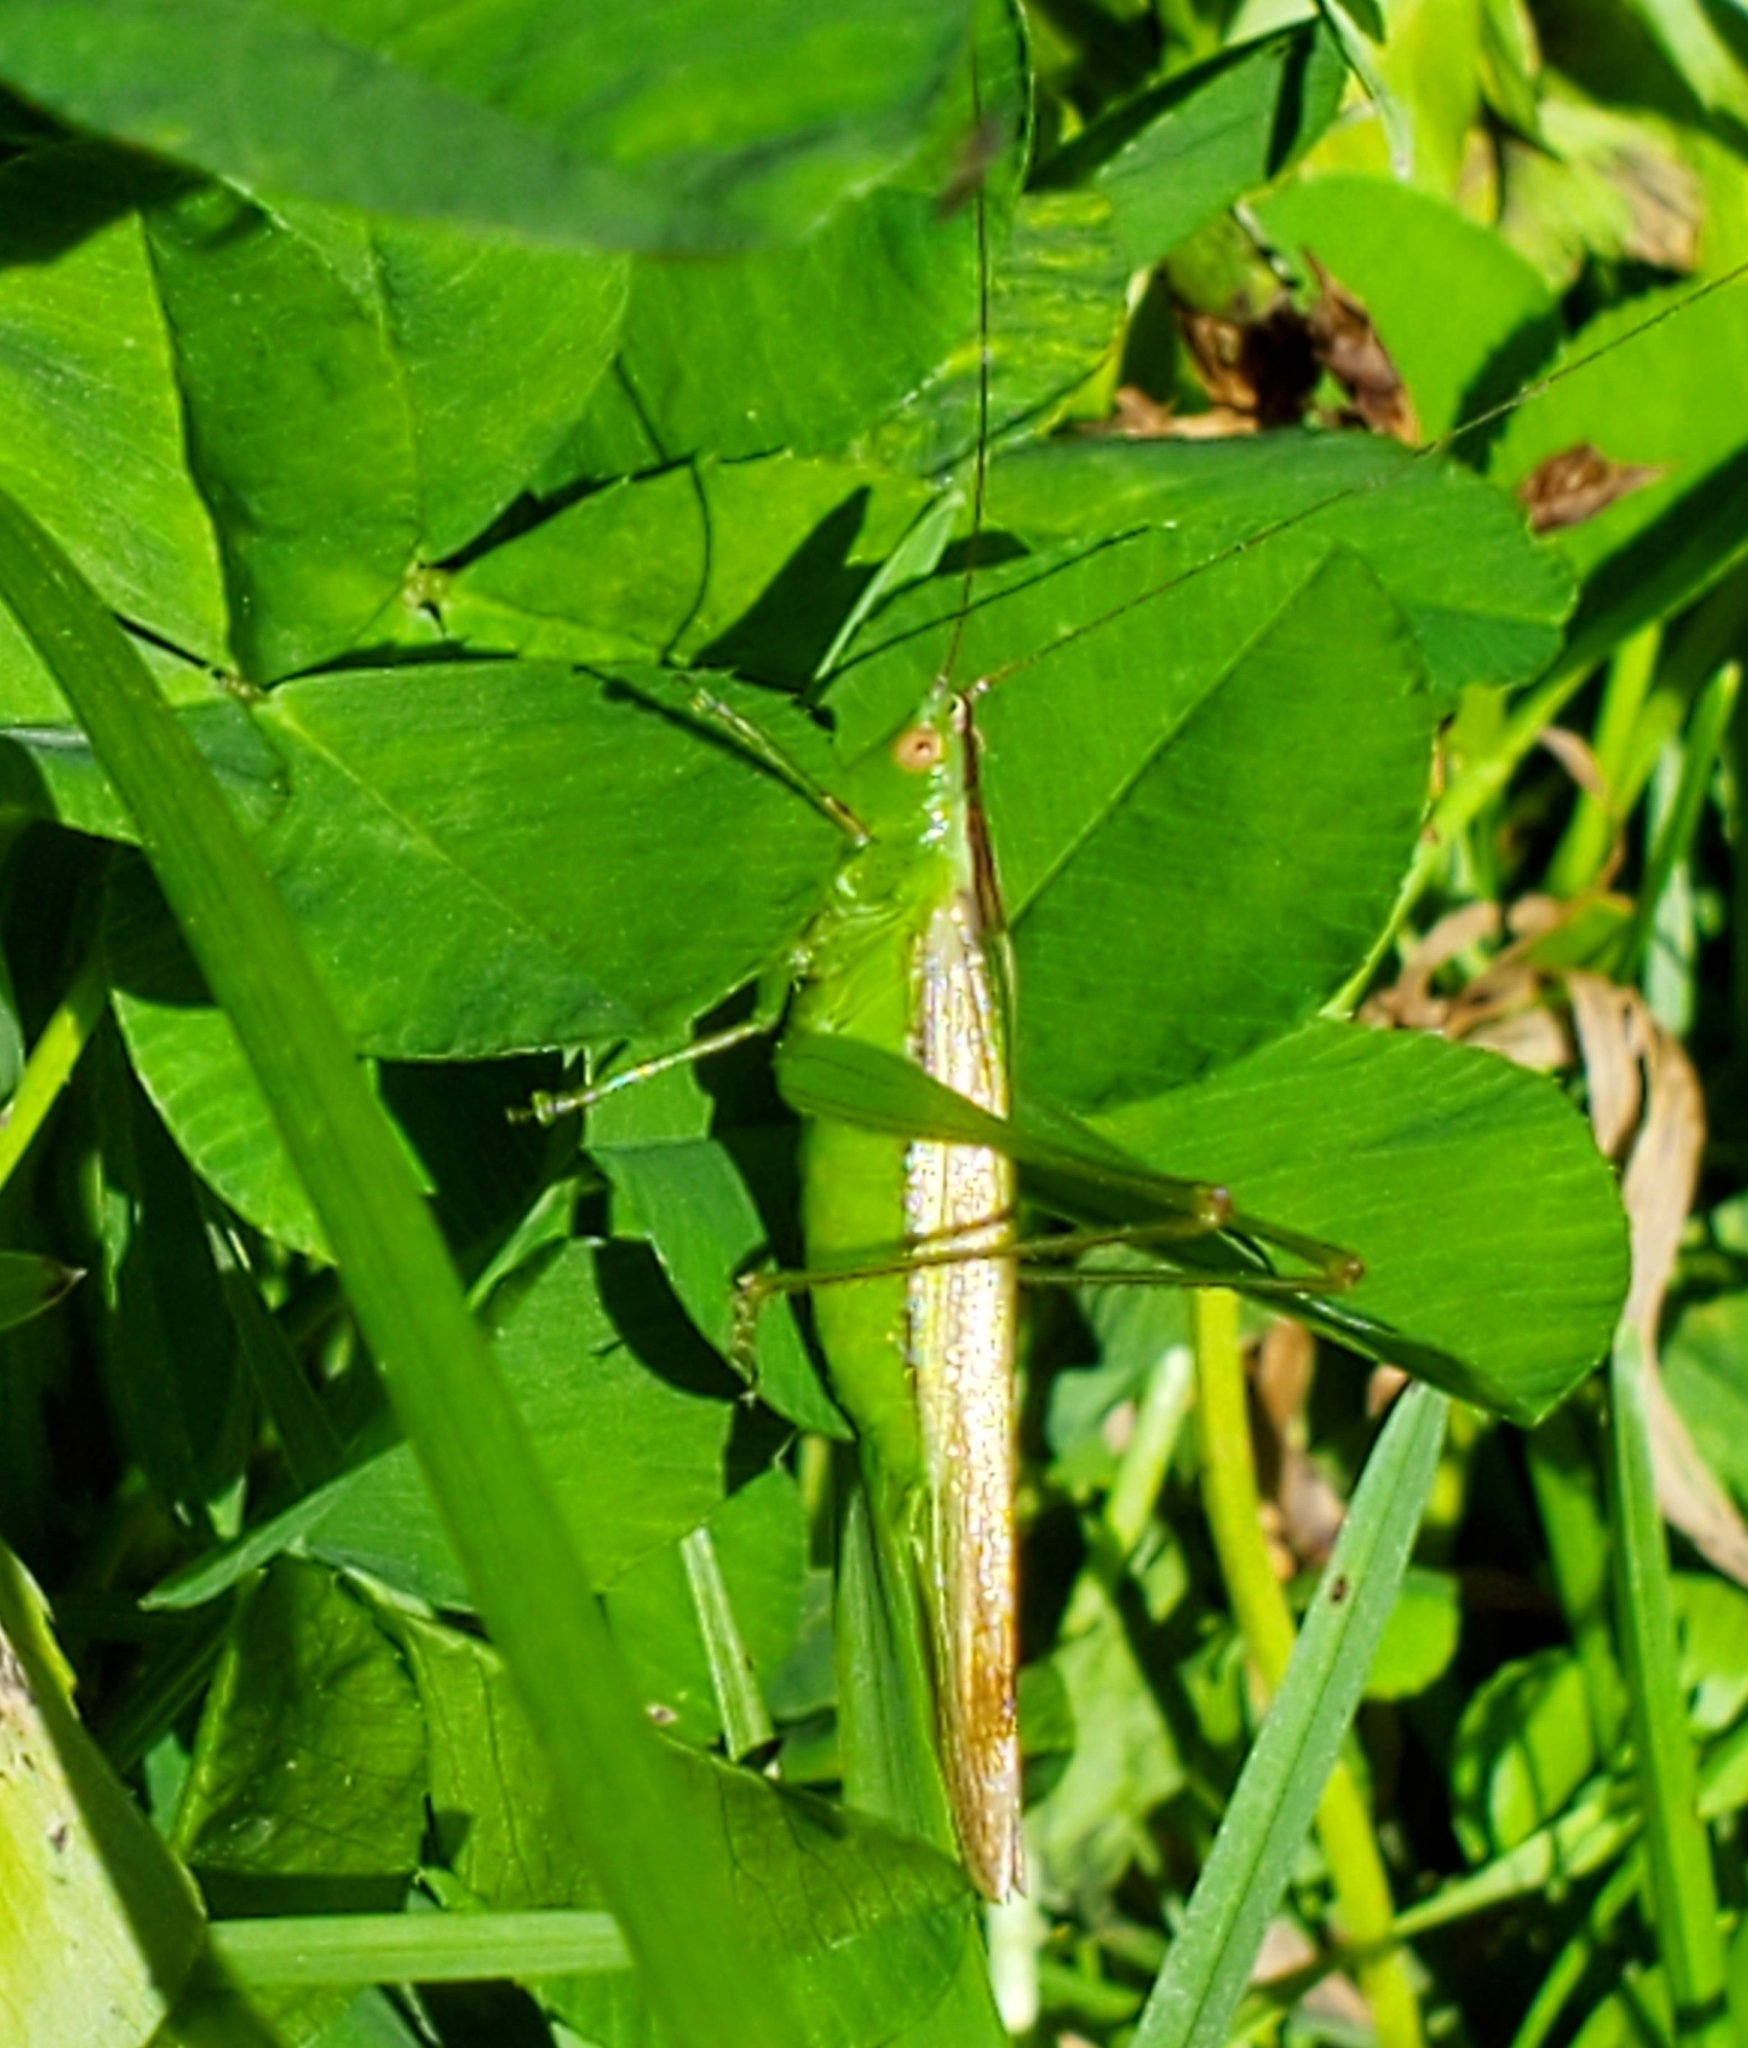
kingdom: Animalia
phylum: Arthropoda
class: Insecta
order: Orthoptera
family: Tettigoniidae
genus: Conocephalus
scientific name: Conocephalus fasciatus
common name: Slender meadow katydid
